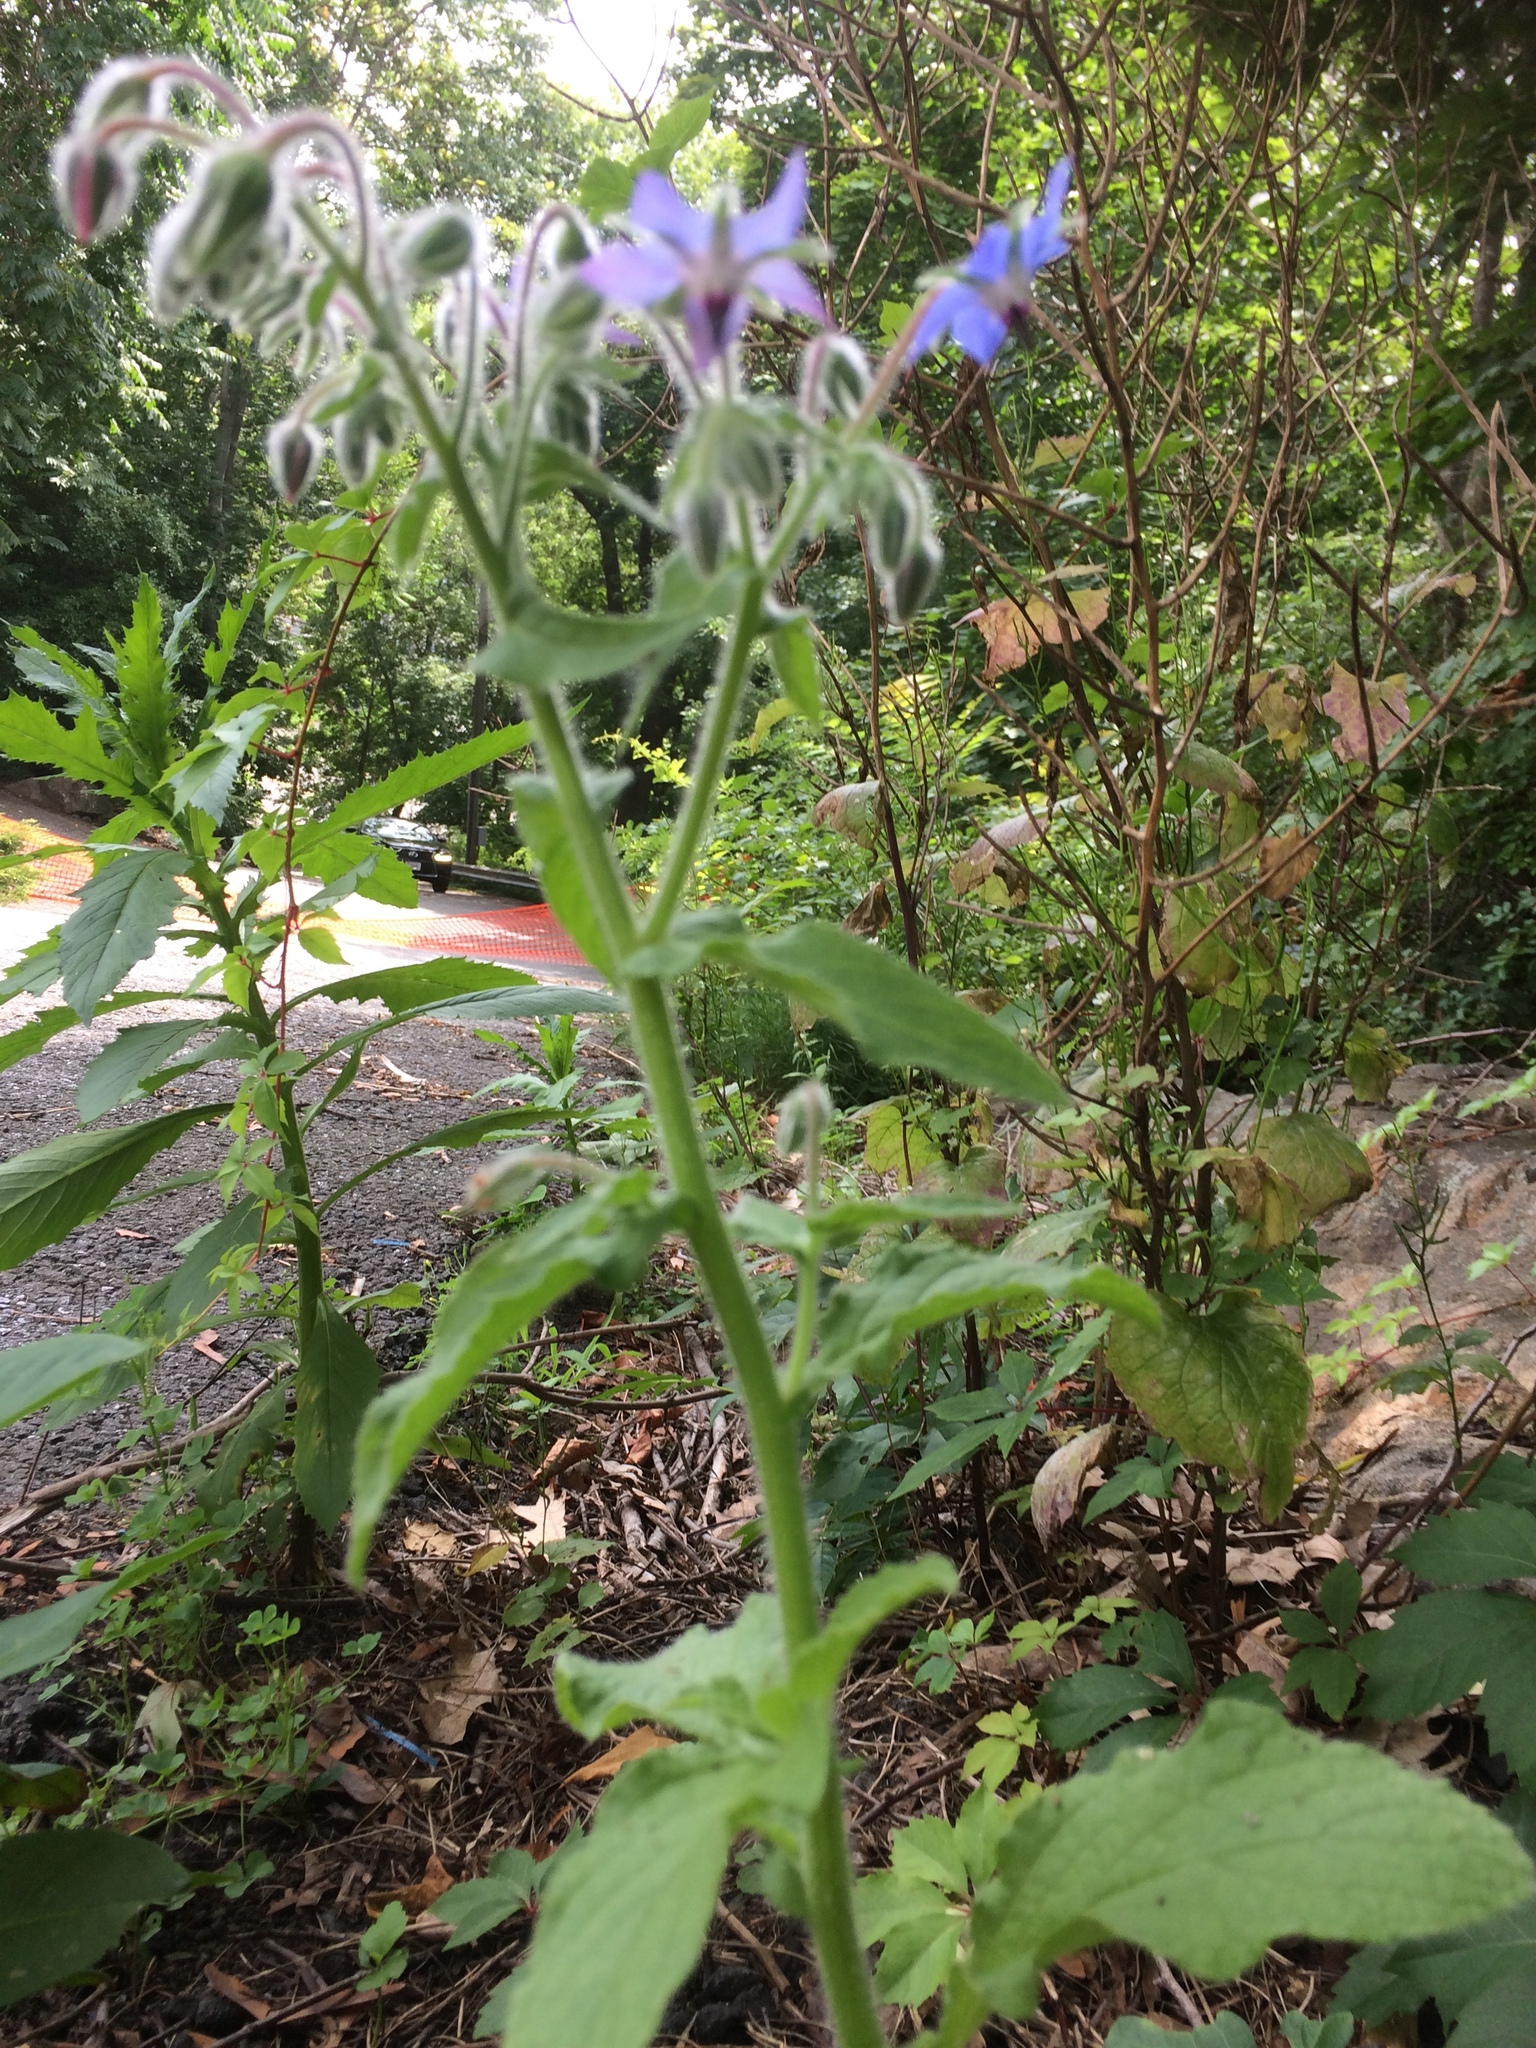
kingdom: Plantae
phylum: Tracheophyta
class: Magnoliopsida
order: Boraginales
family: Boraginaceae
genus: Borago
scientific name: Borago officinalis
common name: Borage
